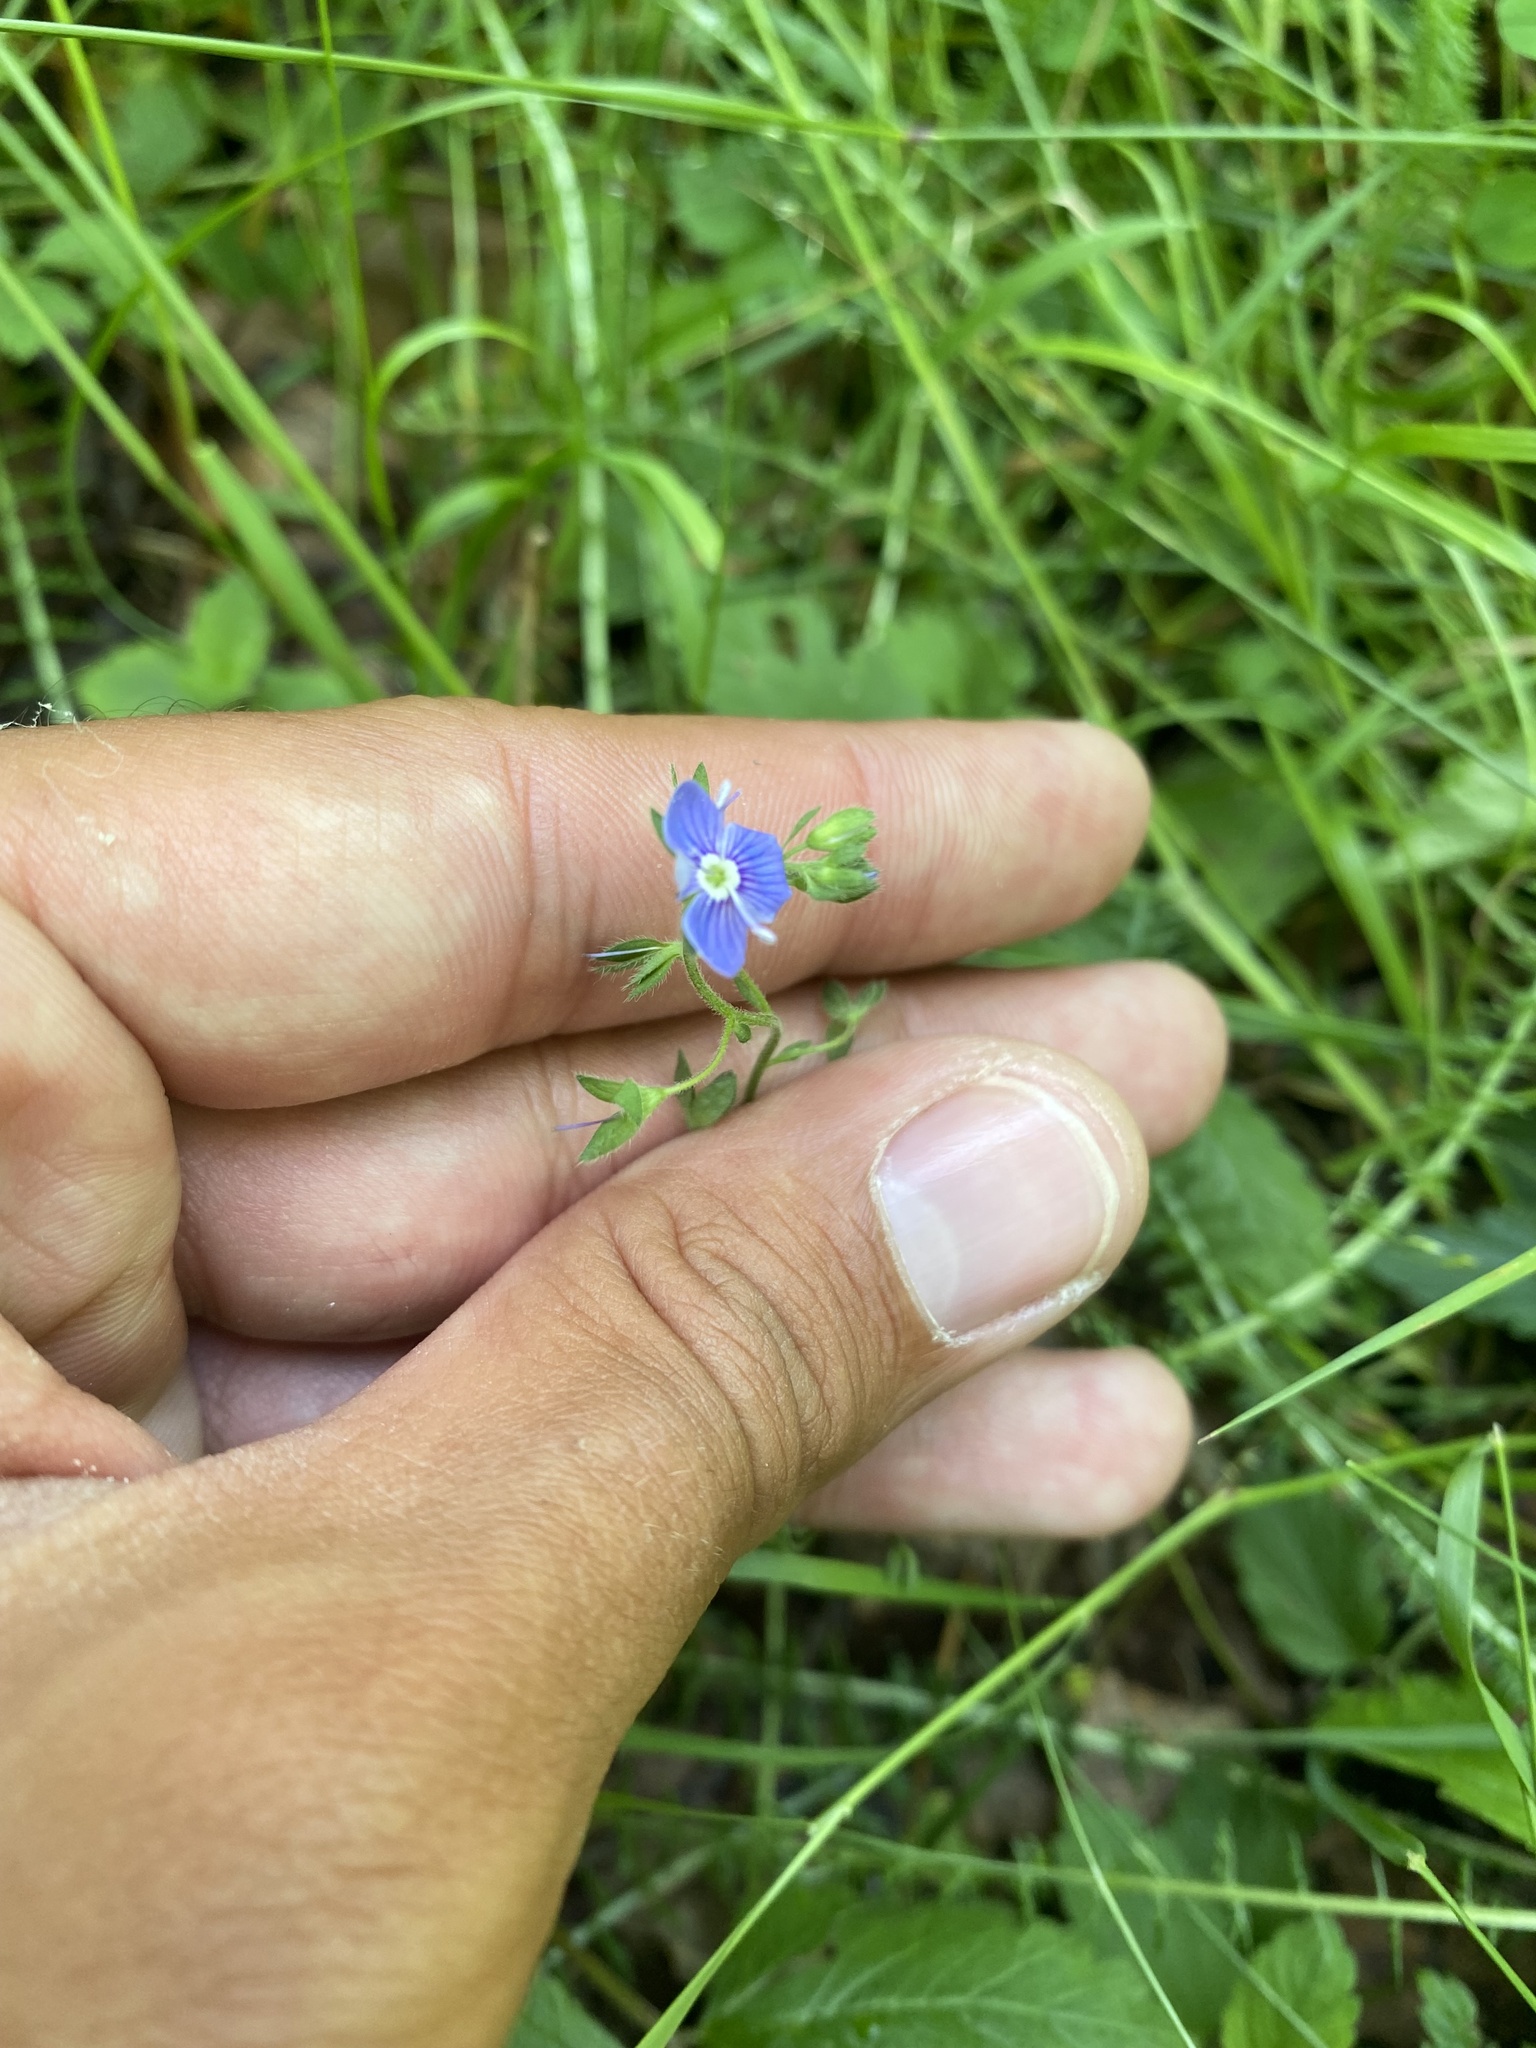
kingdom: Plantae
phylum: Tracheophyta
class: Magnoliopsida
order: Lamiales
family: Plantaginaceae
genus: Veronica
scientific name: Veronica chamaedrys
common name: Germander speedwell
